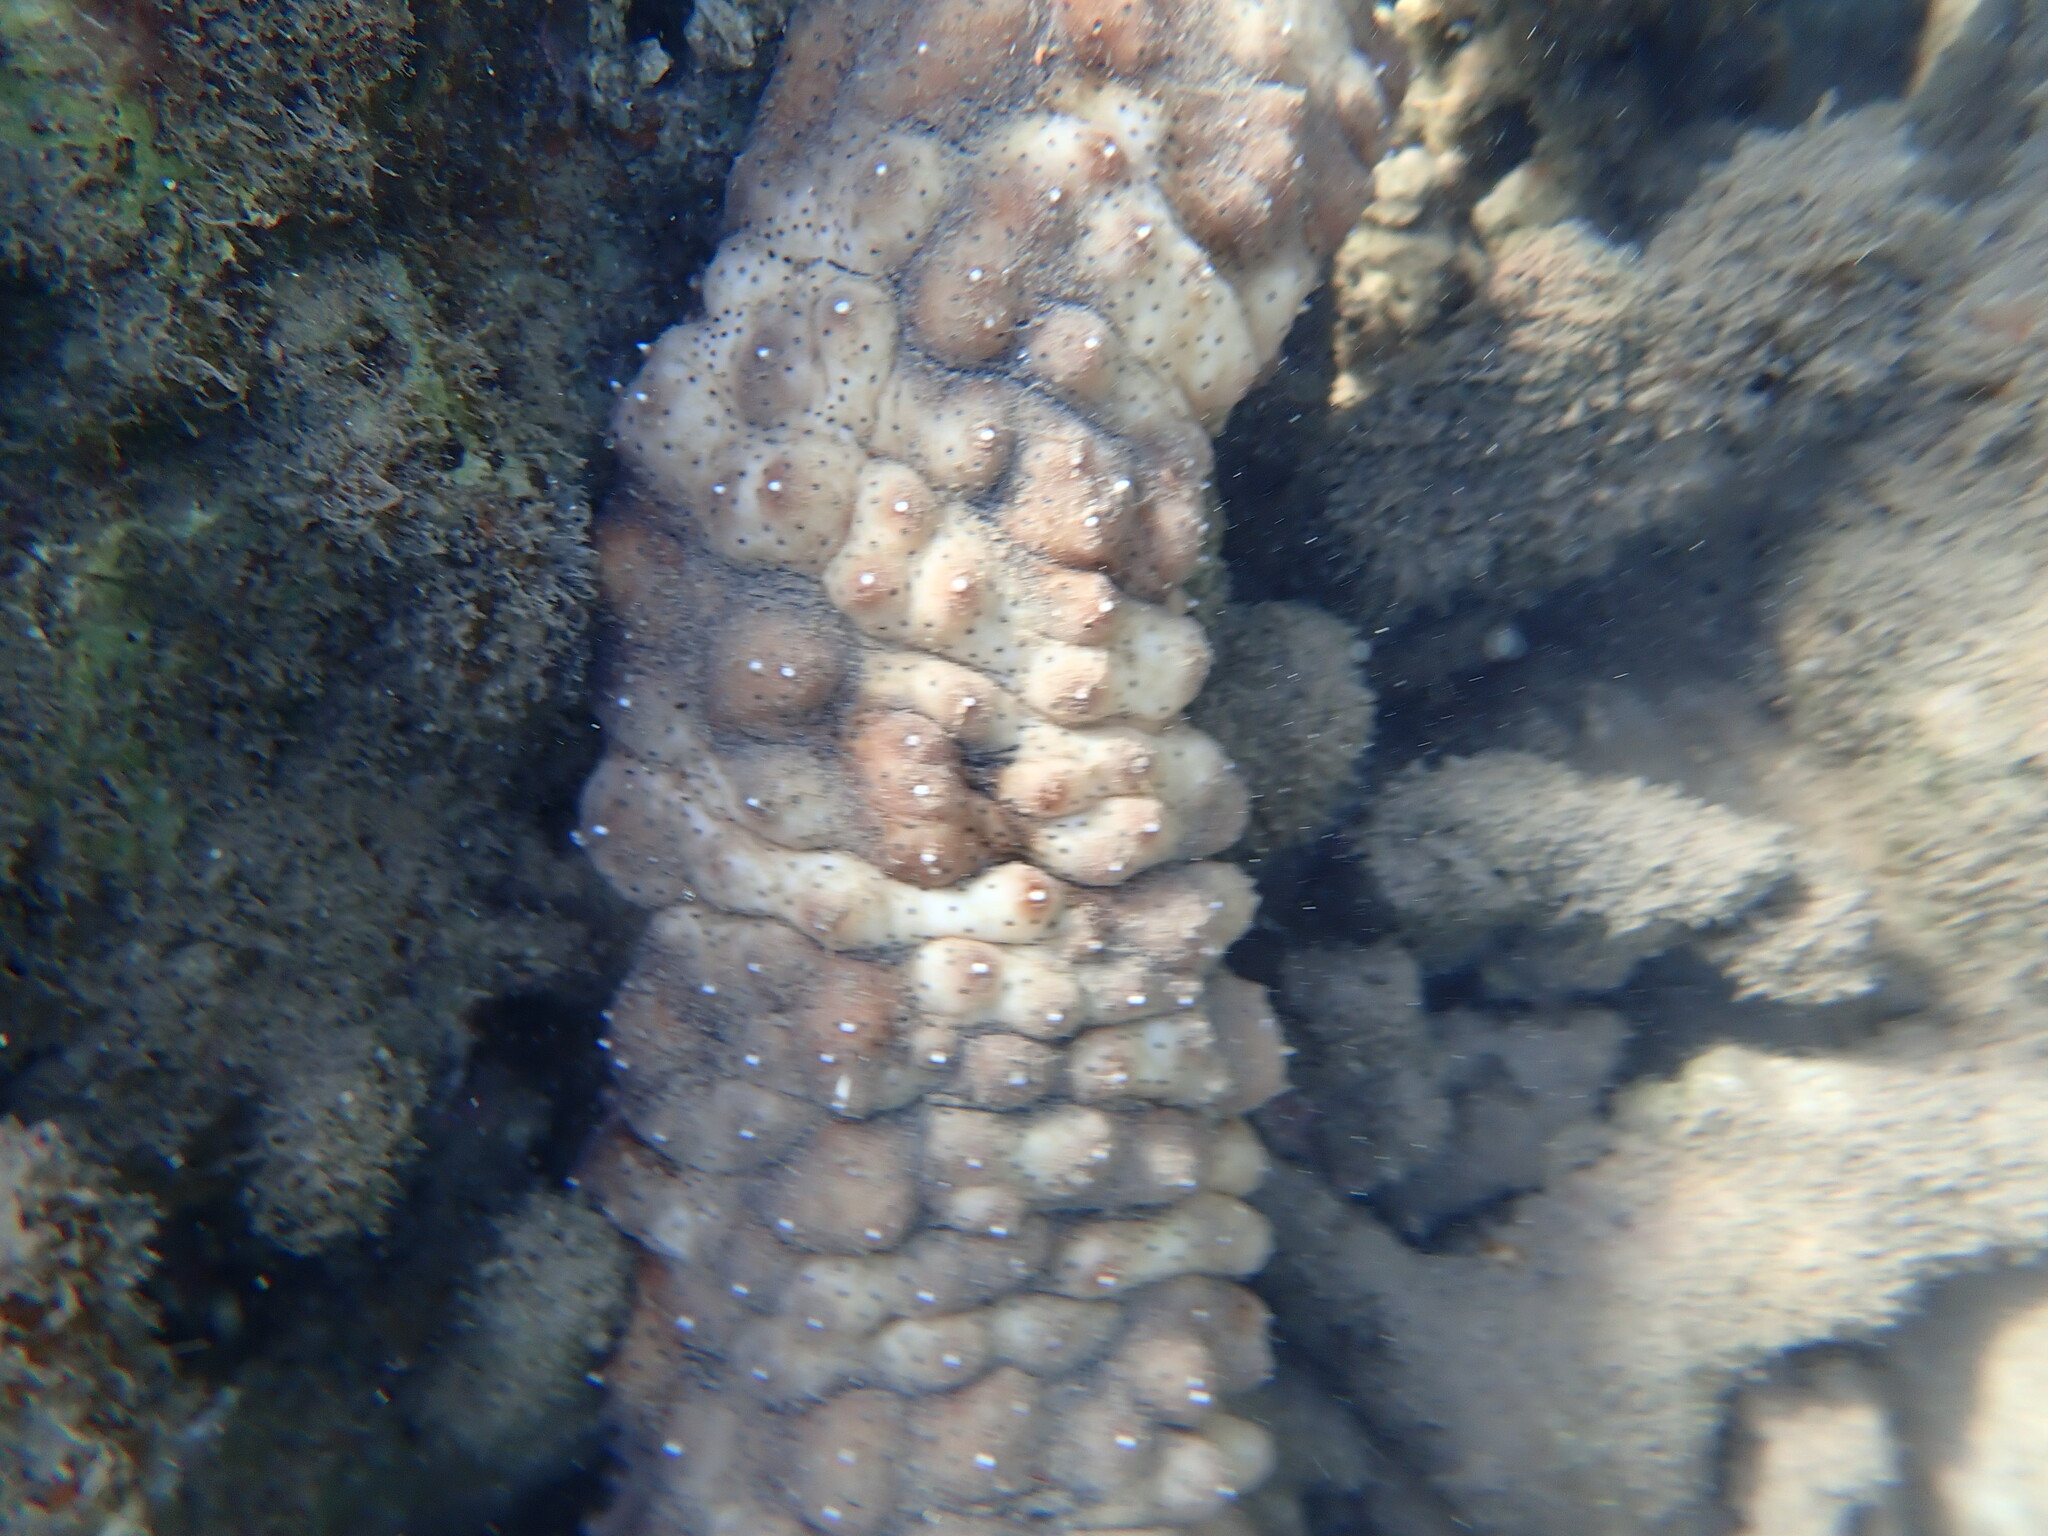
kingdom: Animalia
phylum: Echinodermata
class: Holothuroidea
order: Holothuriida
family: Holothuriidae
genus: Pearsonothuria
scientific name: Pearsonothuria graeffei
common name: Blackspotted sea cucumber
